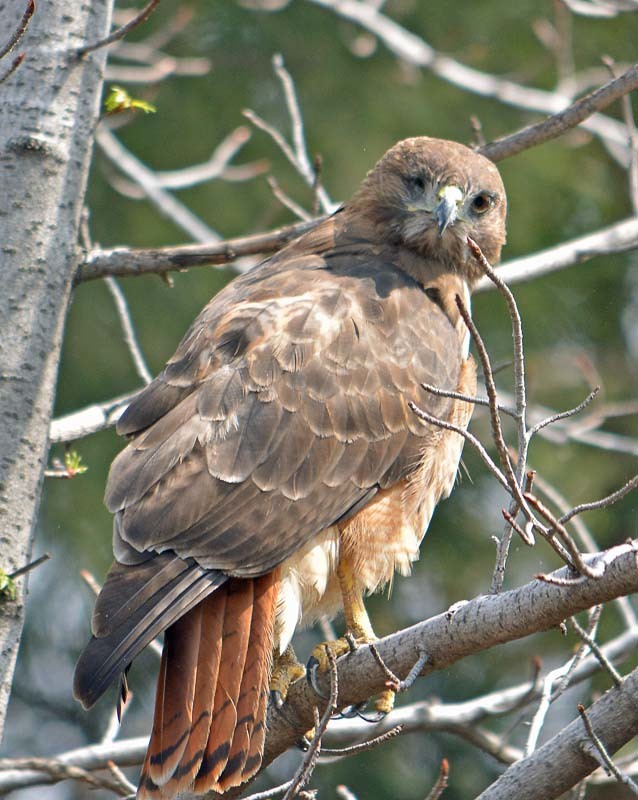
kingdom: Animalia
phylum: Chordata
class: Aves
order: Accipitriformes
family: Accipitridae
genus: Buteo
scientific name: Buteo jamaicensis
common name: Red-tailed hawk
